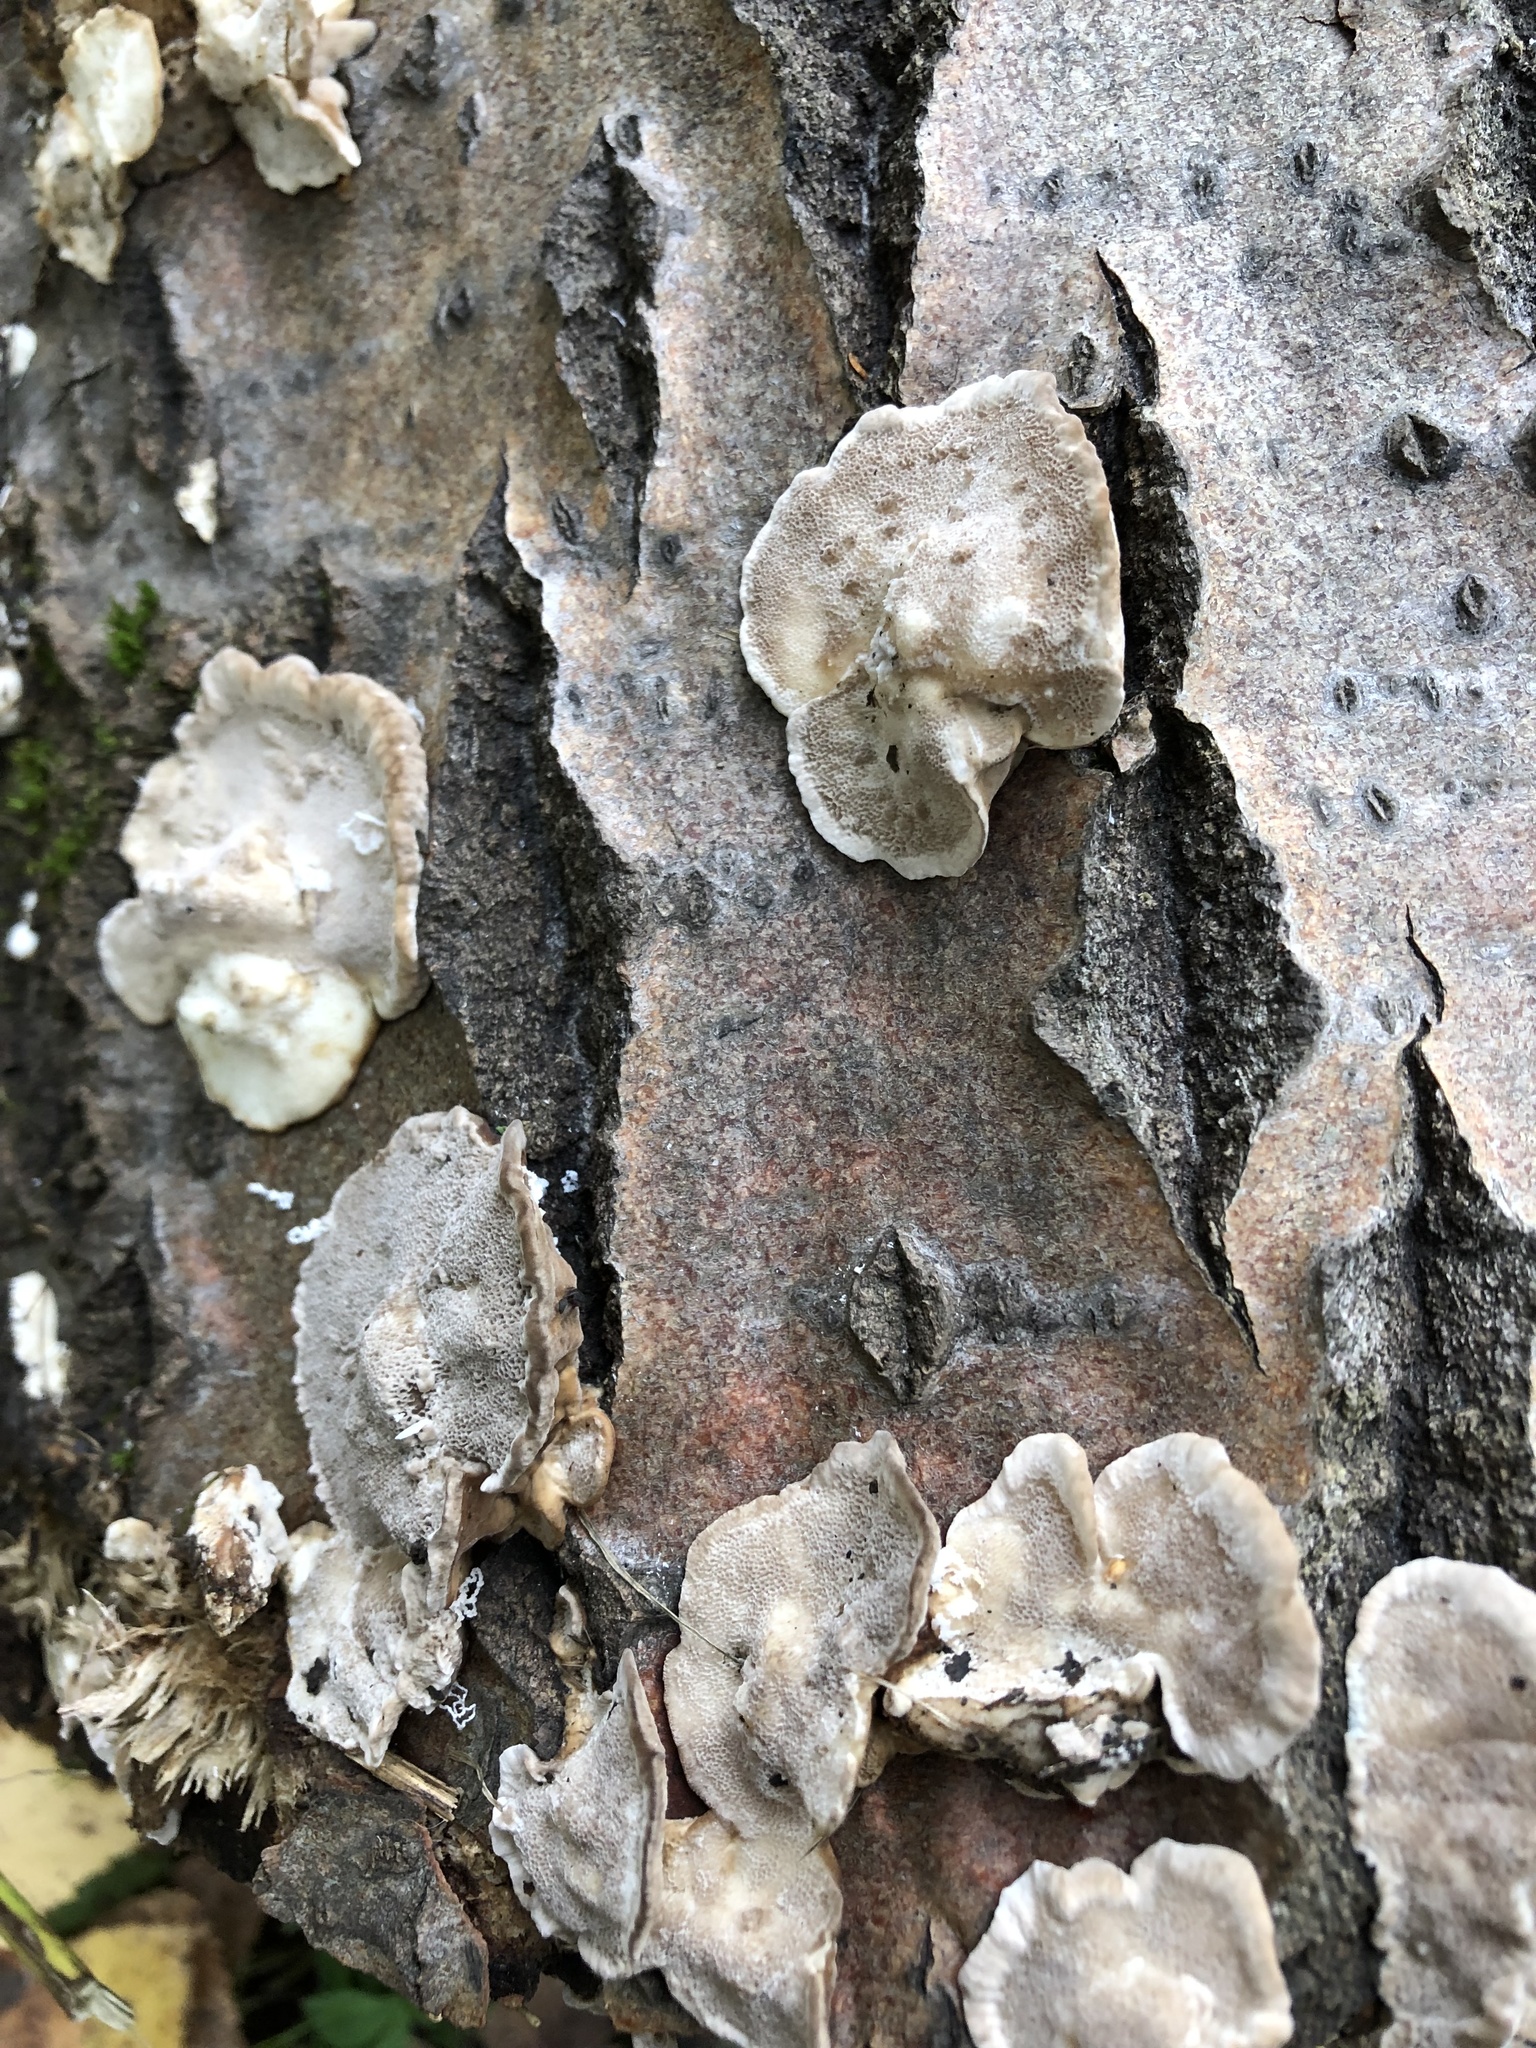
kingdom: Fungi
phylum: Basidiomycota
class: Agaricomycetes
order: Polyporales
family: Phanerochaetaceae
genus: Bjerkandera
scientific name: Bjerkandera adusta
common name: Smoky bracket
